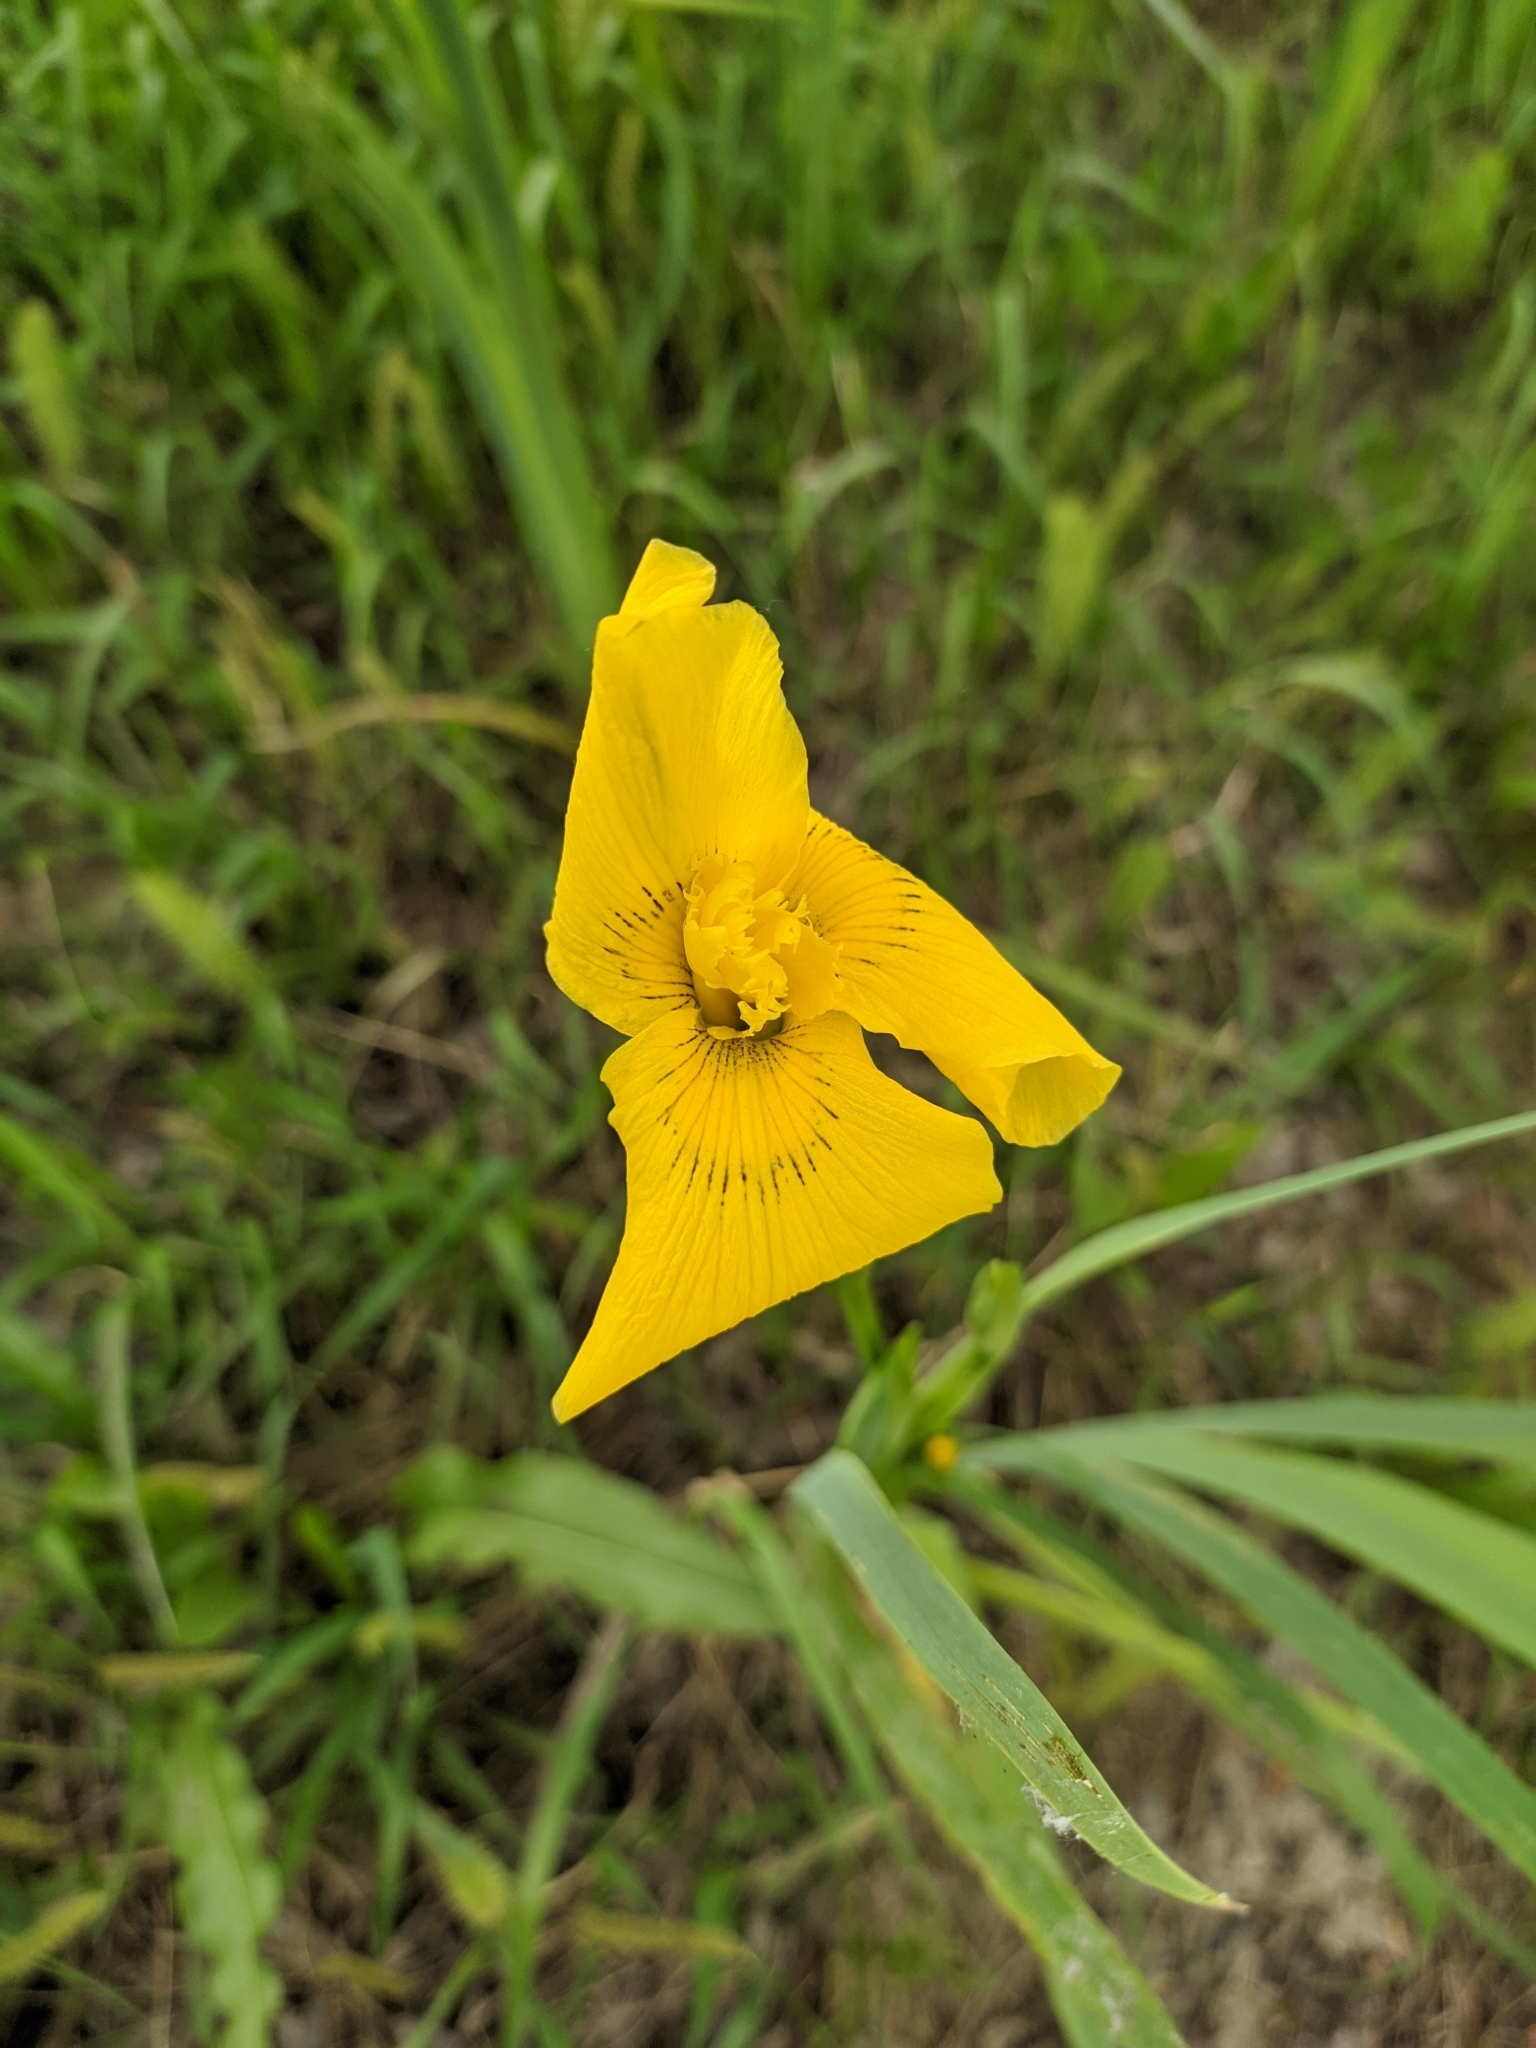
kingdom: Plantae
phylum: Tracheophyta
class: Liliopsida
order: Asparagales
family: Iridaceae
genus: Iris
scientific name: Iris pseudacorus
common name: Yellow flag
